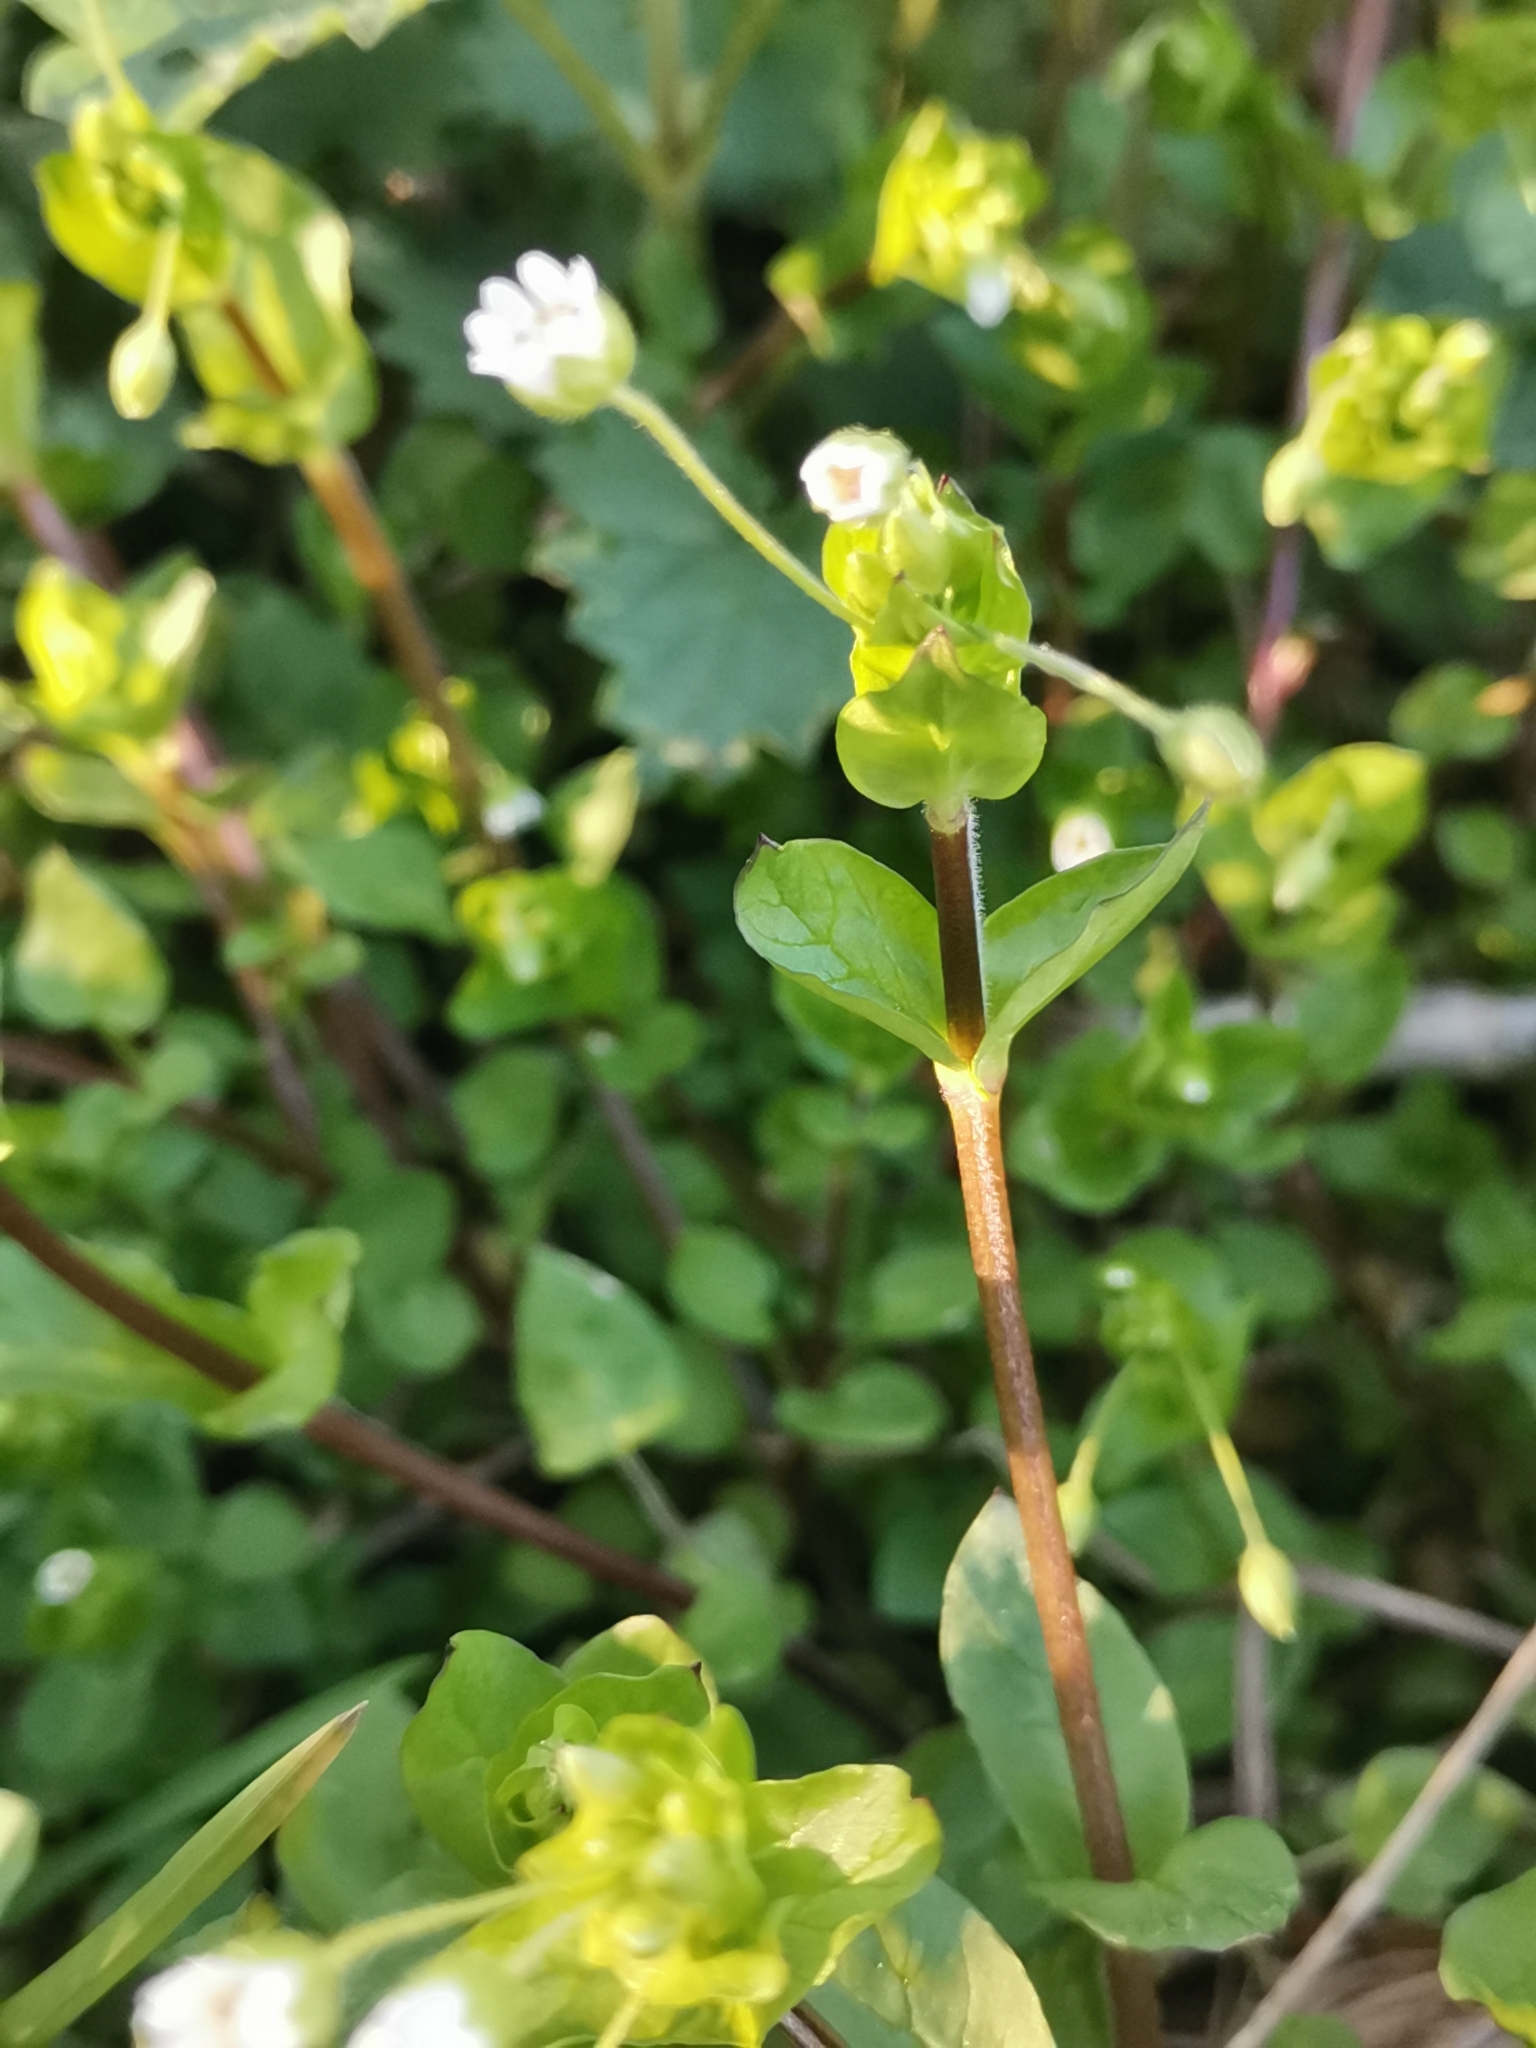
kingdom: Plantae
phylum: Tracheophyta
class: Magnoliopsida
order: Caryophyllales
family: Caryophyllaceae
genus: Stellaria
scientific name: Stellaria neglecta
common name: Greater chickweed
